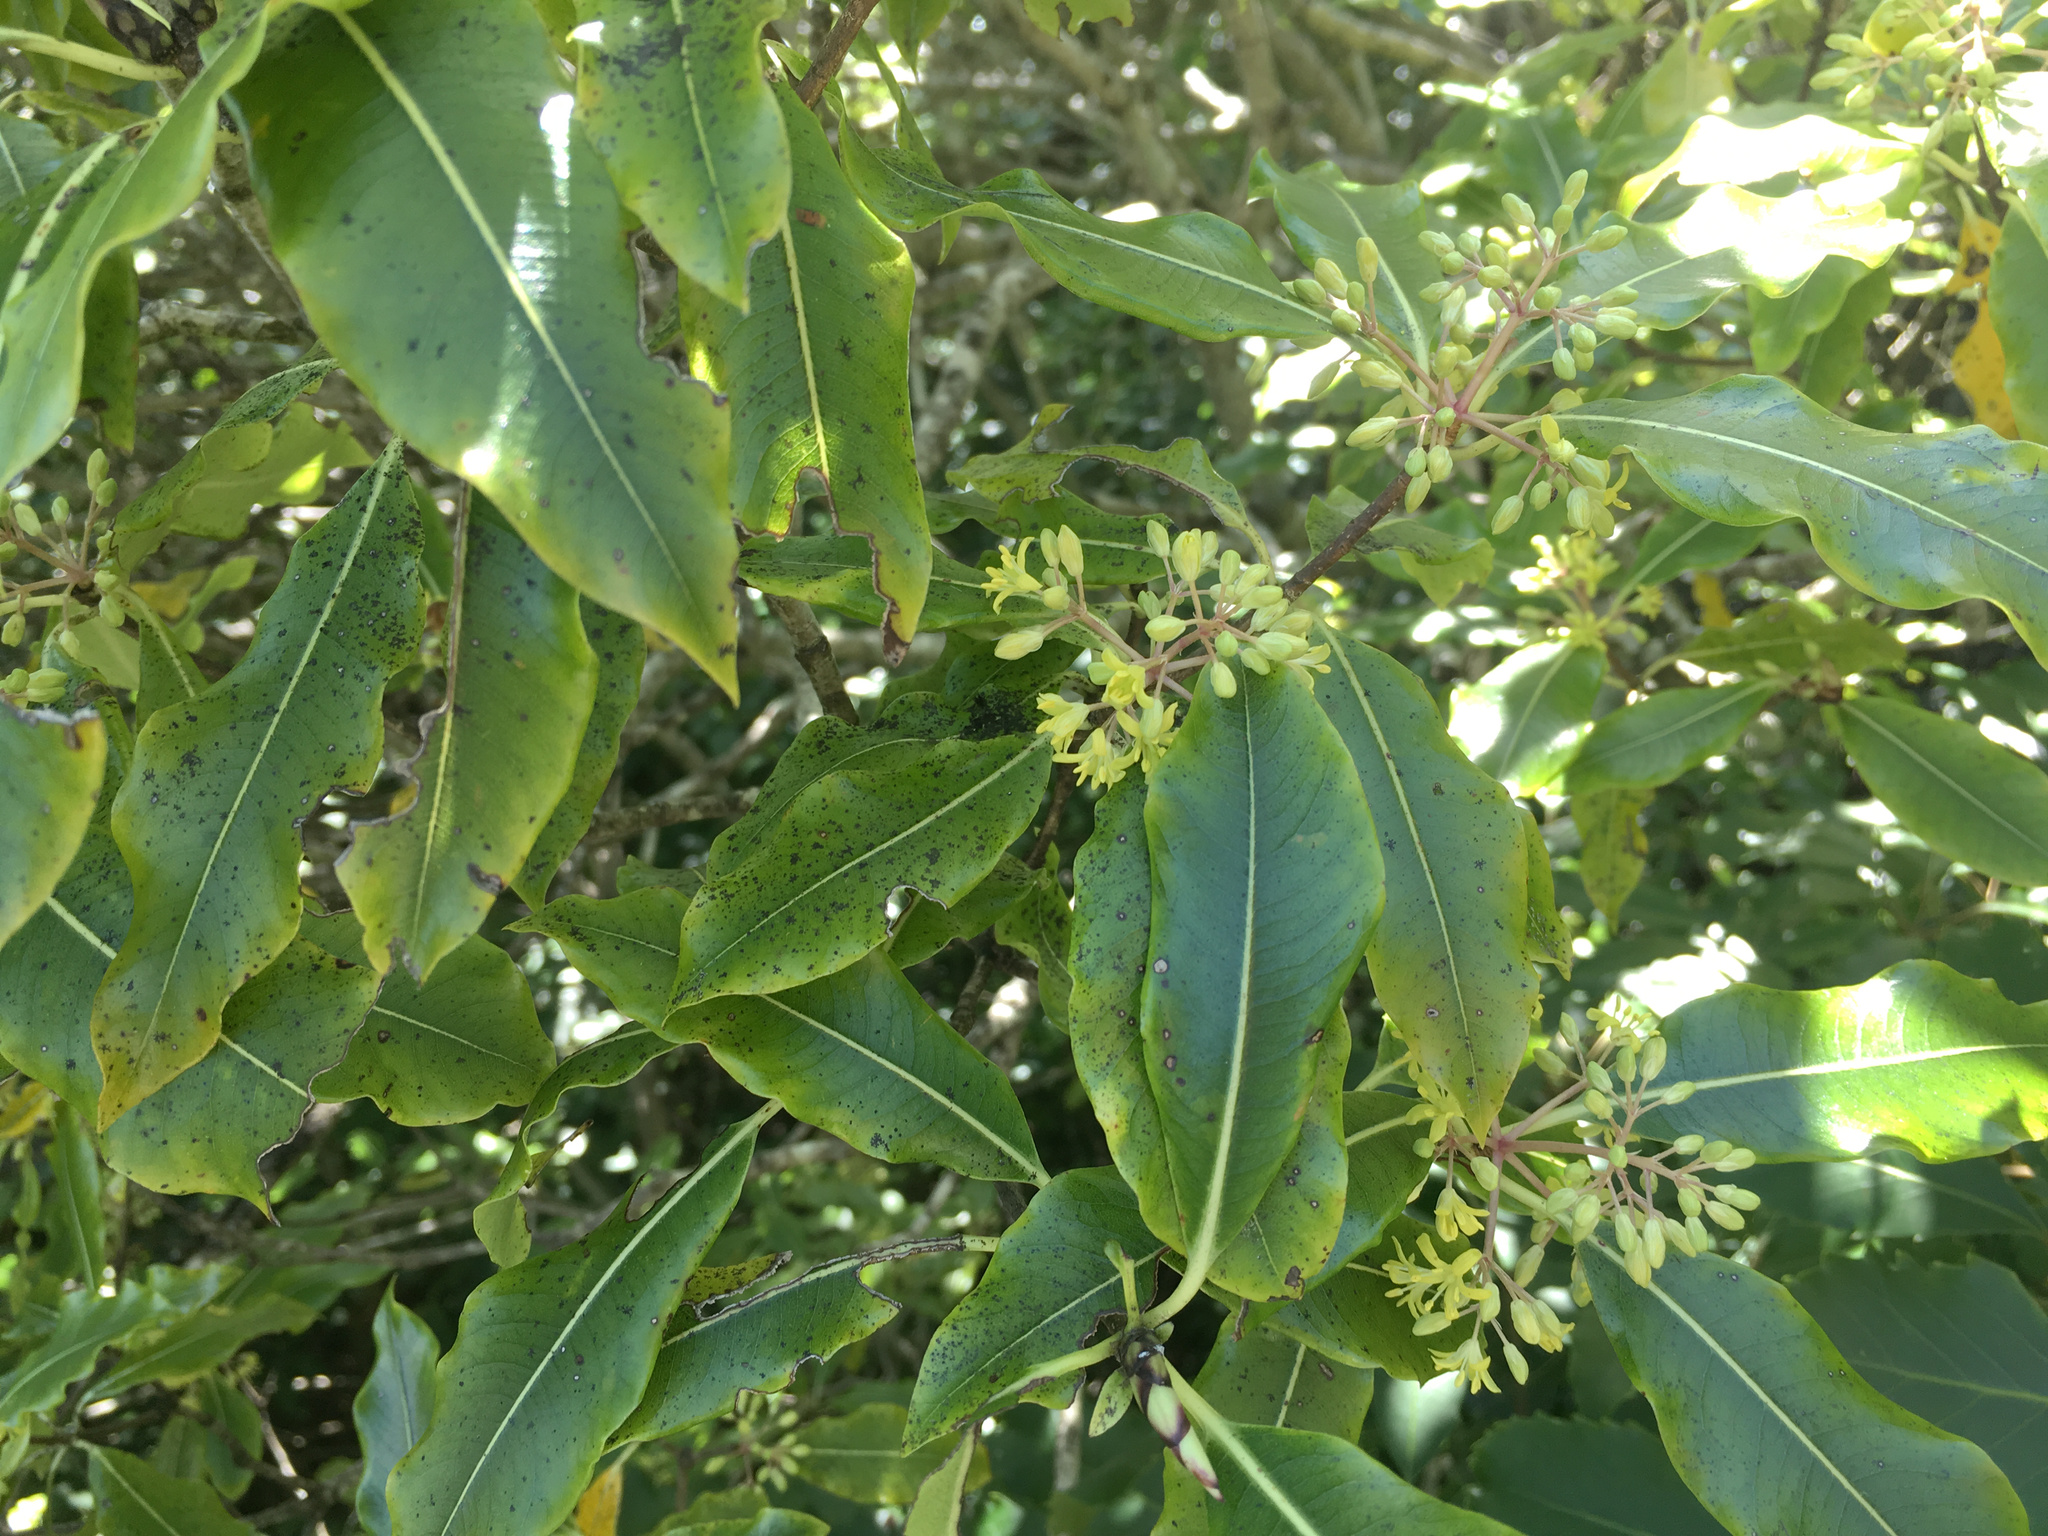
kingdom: Plantae
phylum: Tracheophyta
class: Magnoliopsida
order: Apiales
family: Pittosporaceae
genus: Pittosporum
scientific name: Pittosporum eugenioides
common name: Lemonwood
